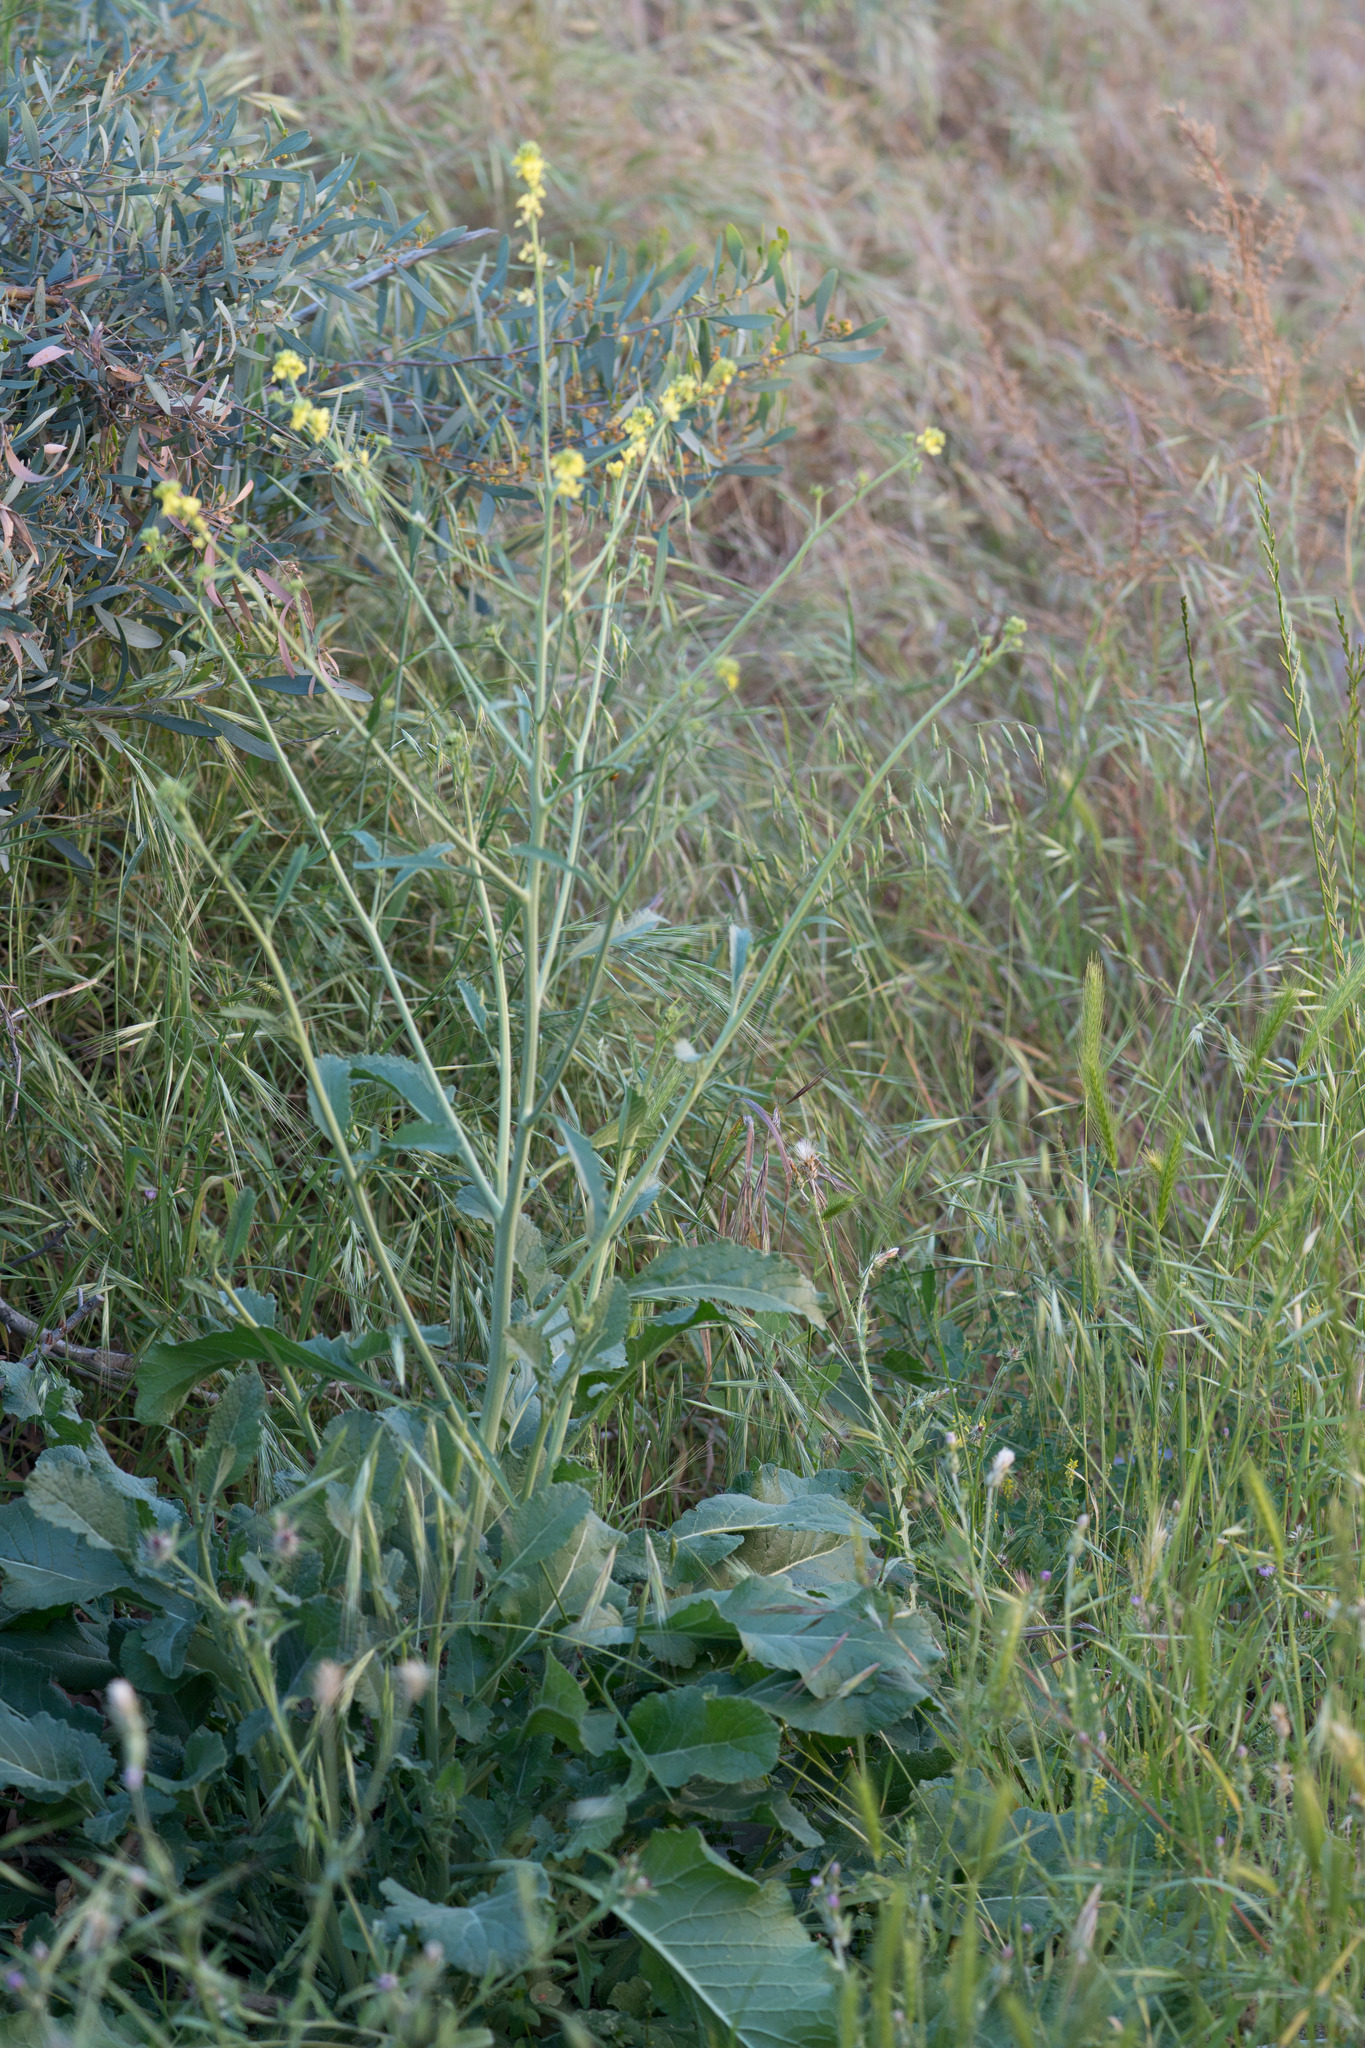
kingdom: Plantae
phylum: Tracheophyta
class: Magnoliopsida
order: Brassicales
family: Brassicaceae
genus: Hirschfeldia
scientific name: Hirschfeldia incana
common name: Hoary mustard
